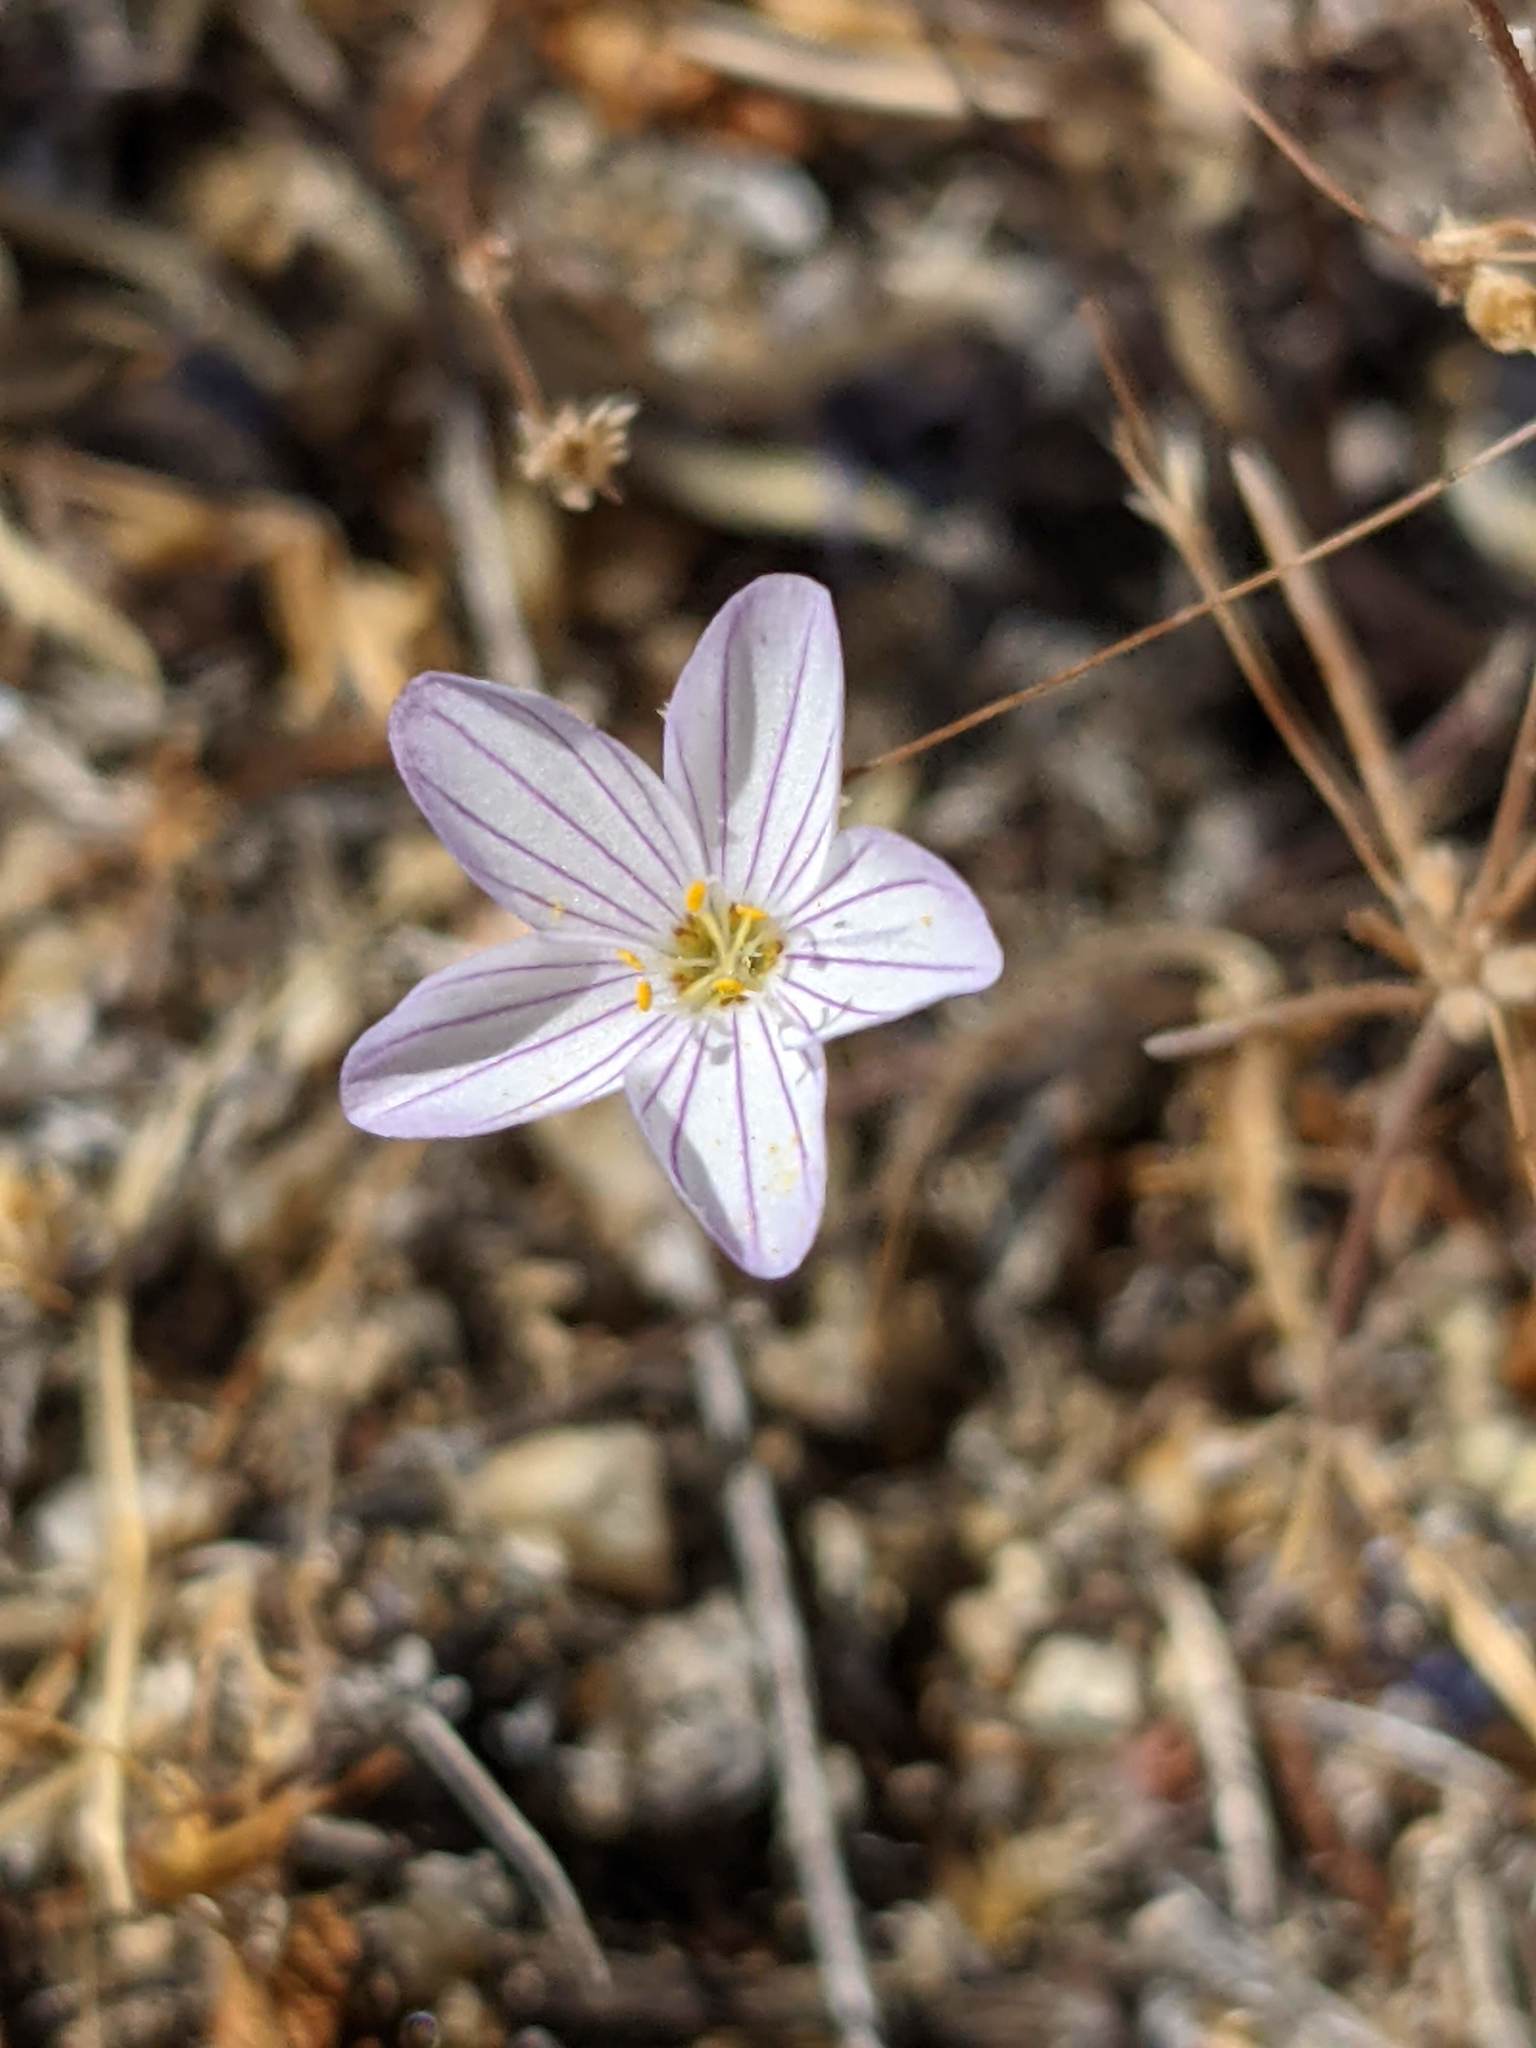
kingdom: Plantae
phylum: Tracheophyta
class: Magnoliopsida
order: Ericales
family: Polemoniaceae
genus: Leptosiphon
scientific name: Leptosiphon liniflorus
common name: Narrowflower flaxflower
